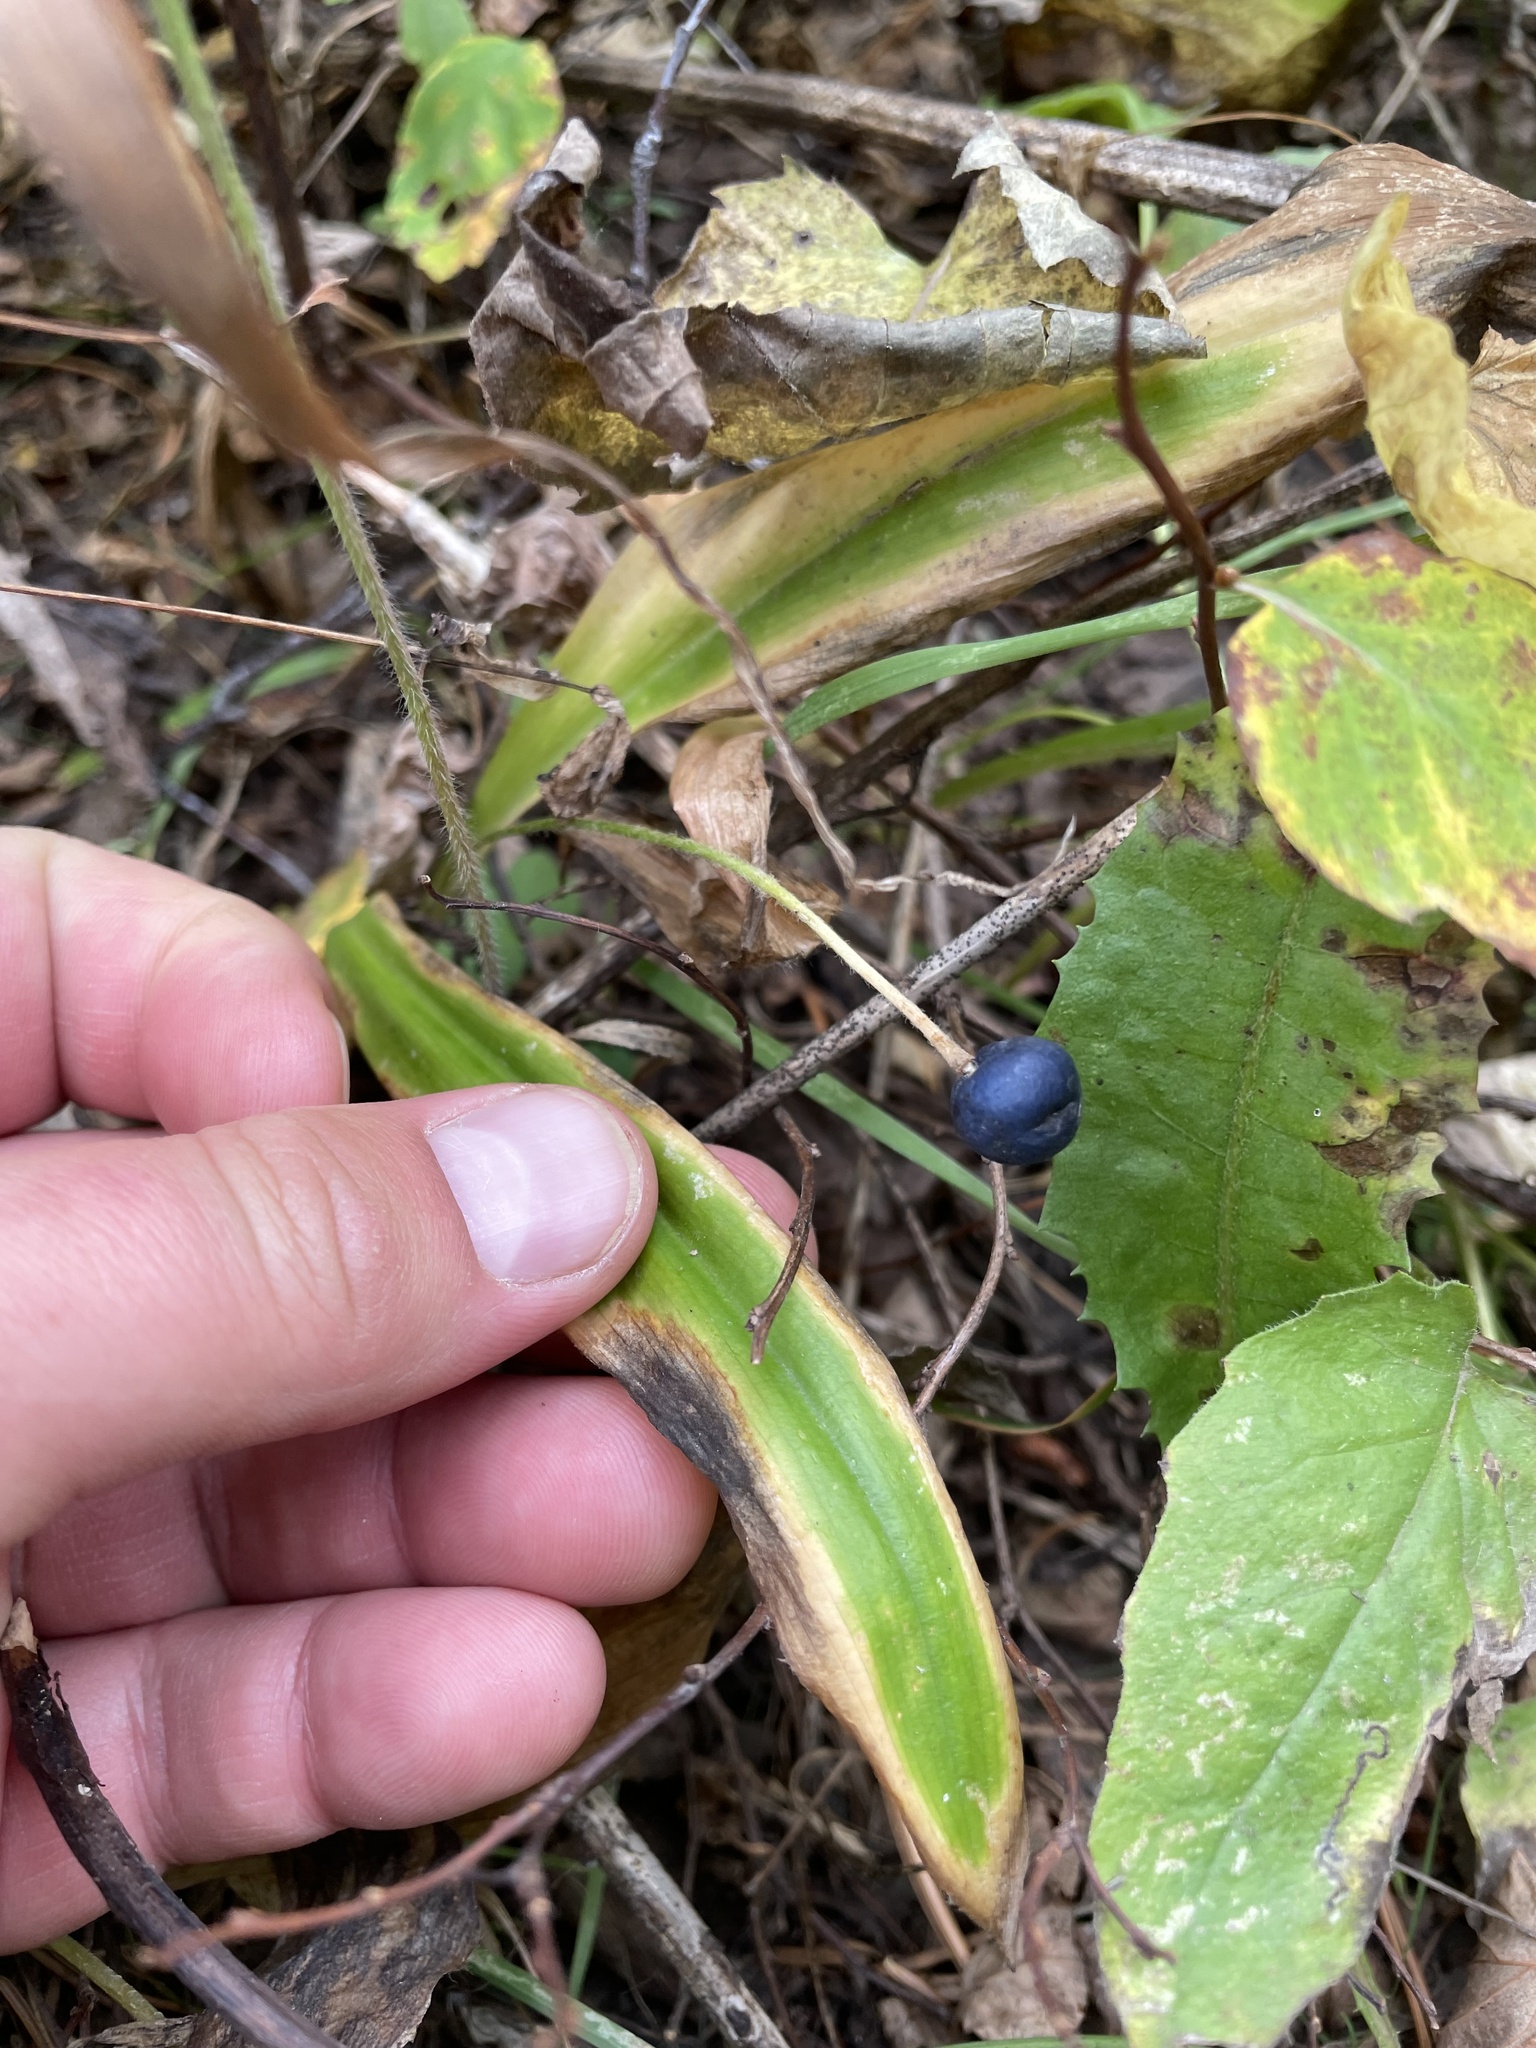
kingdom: Plantae
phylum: Tracheophyta
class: Liliopsida
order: Liliales
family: Liliaceae
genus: Clintonia
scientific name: Clintonia uniflora
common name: Queen's cup
